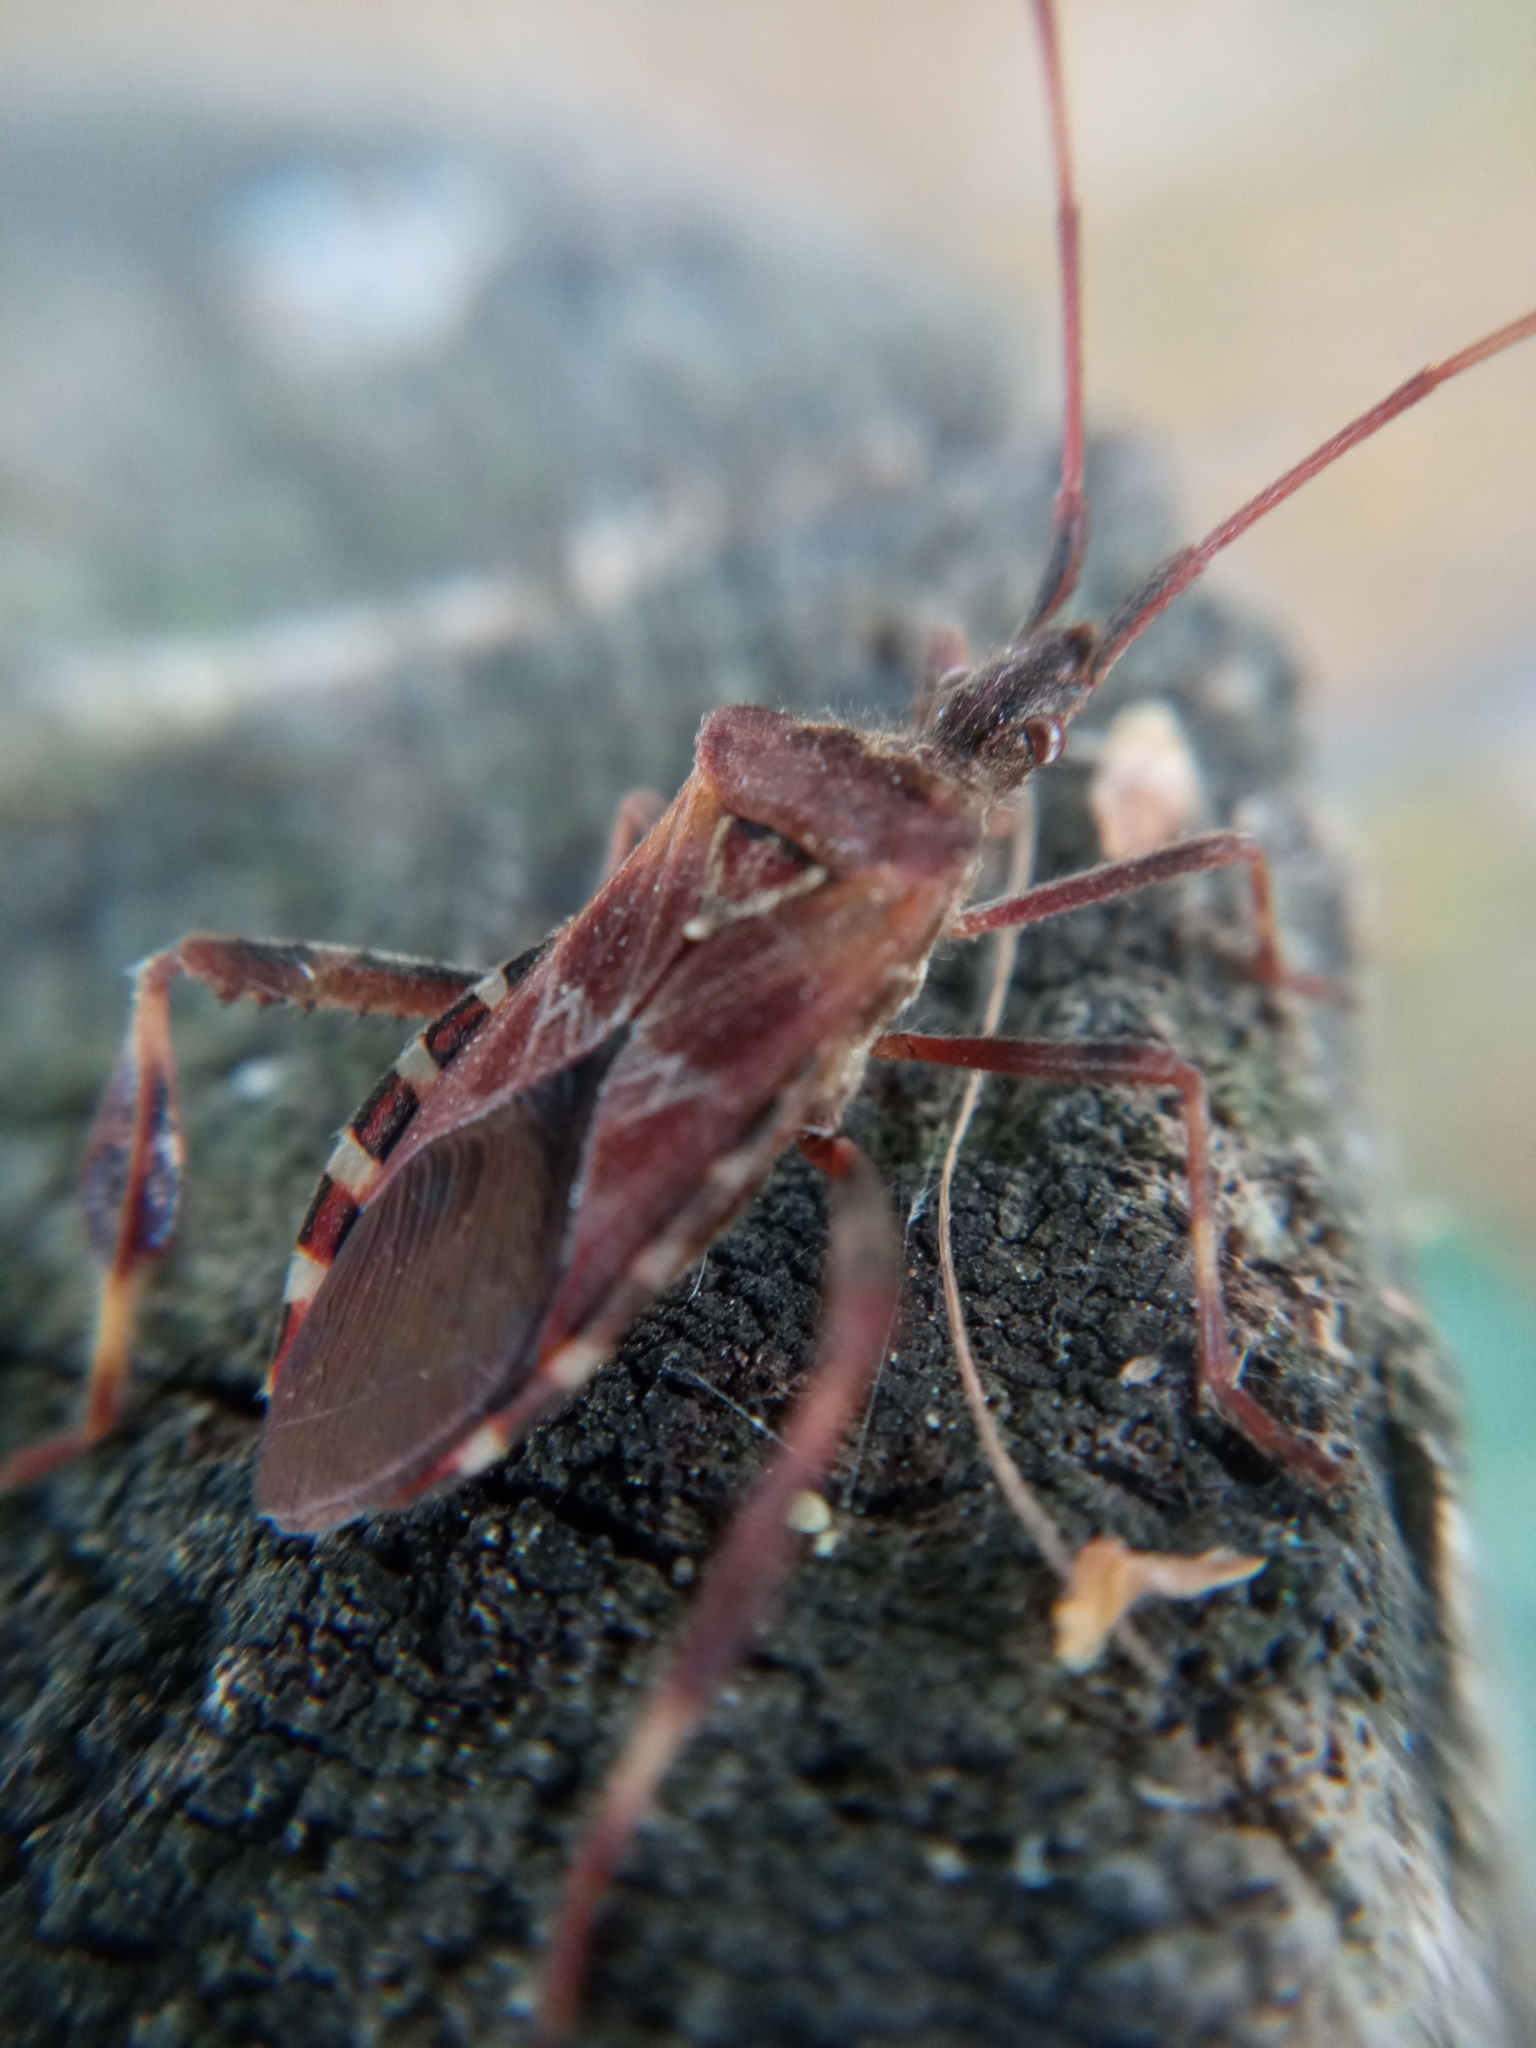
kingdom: Animalia
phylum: Arthropoda
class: Insecta
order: Hemiptera
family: Coreidae
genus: Leptoglossus
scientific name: Leptoglossus occidentalis
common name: Western conifer-seed bug
